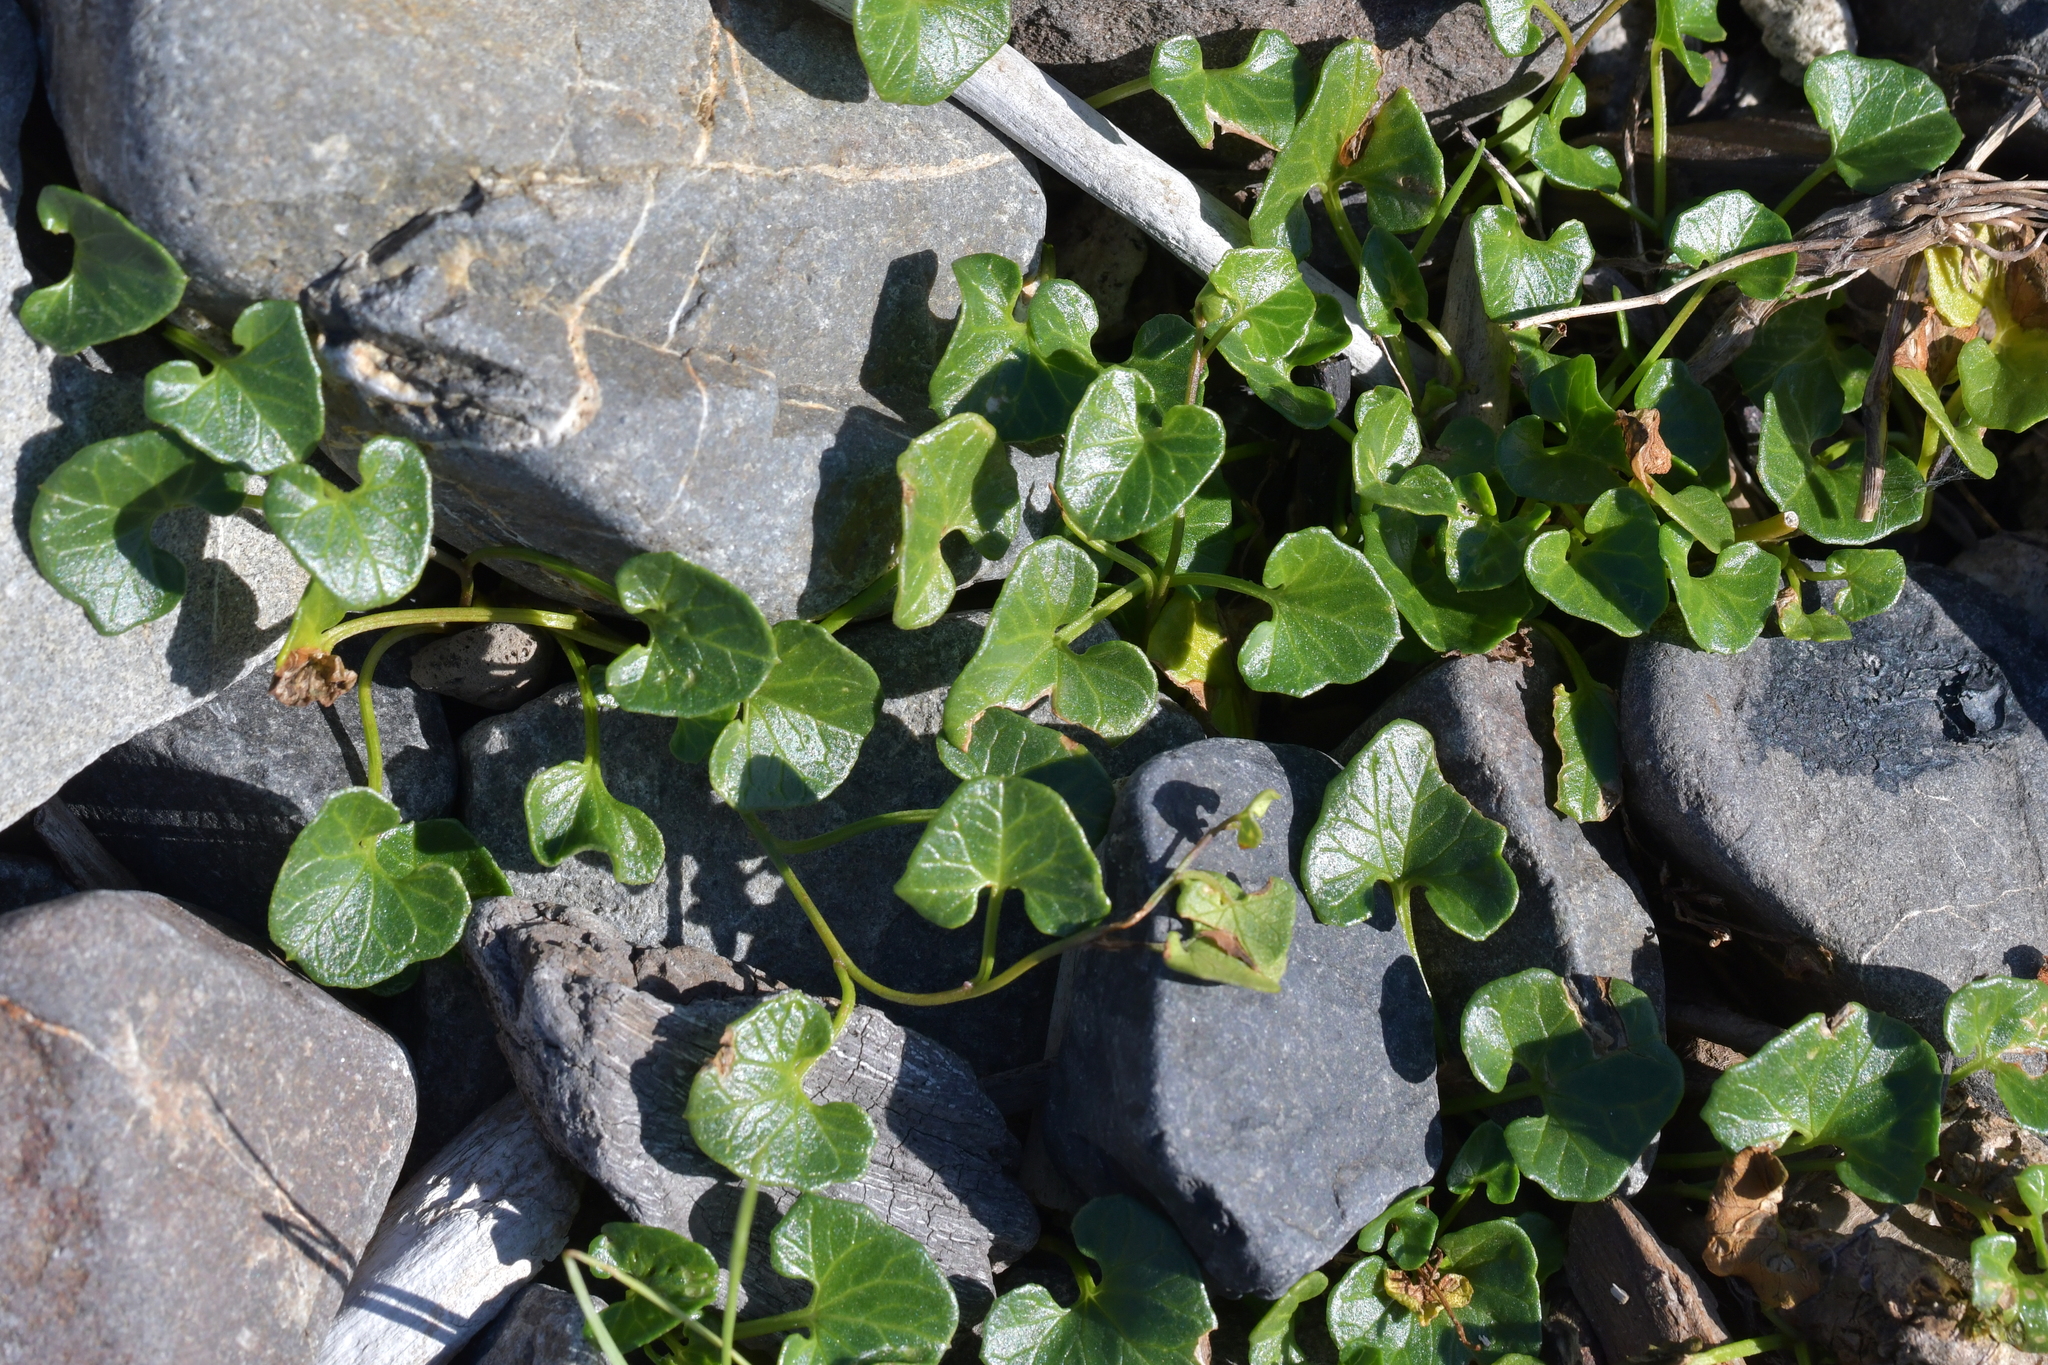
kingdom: Plantae
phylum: Tracheophyta
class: Magnoliopsida
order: Solanales
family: Convolvulaceae
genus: Calystegia
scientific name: Calystegia soldanella
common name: Sea bindweed
